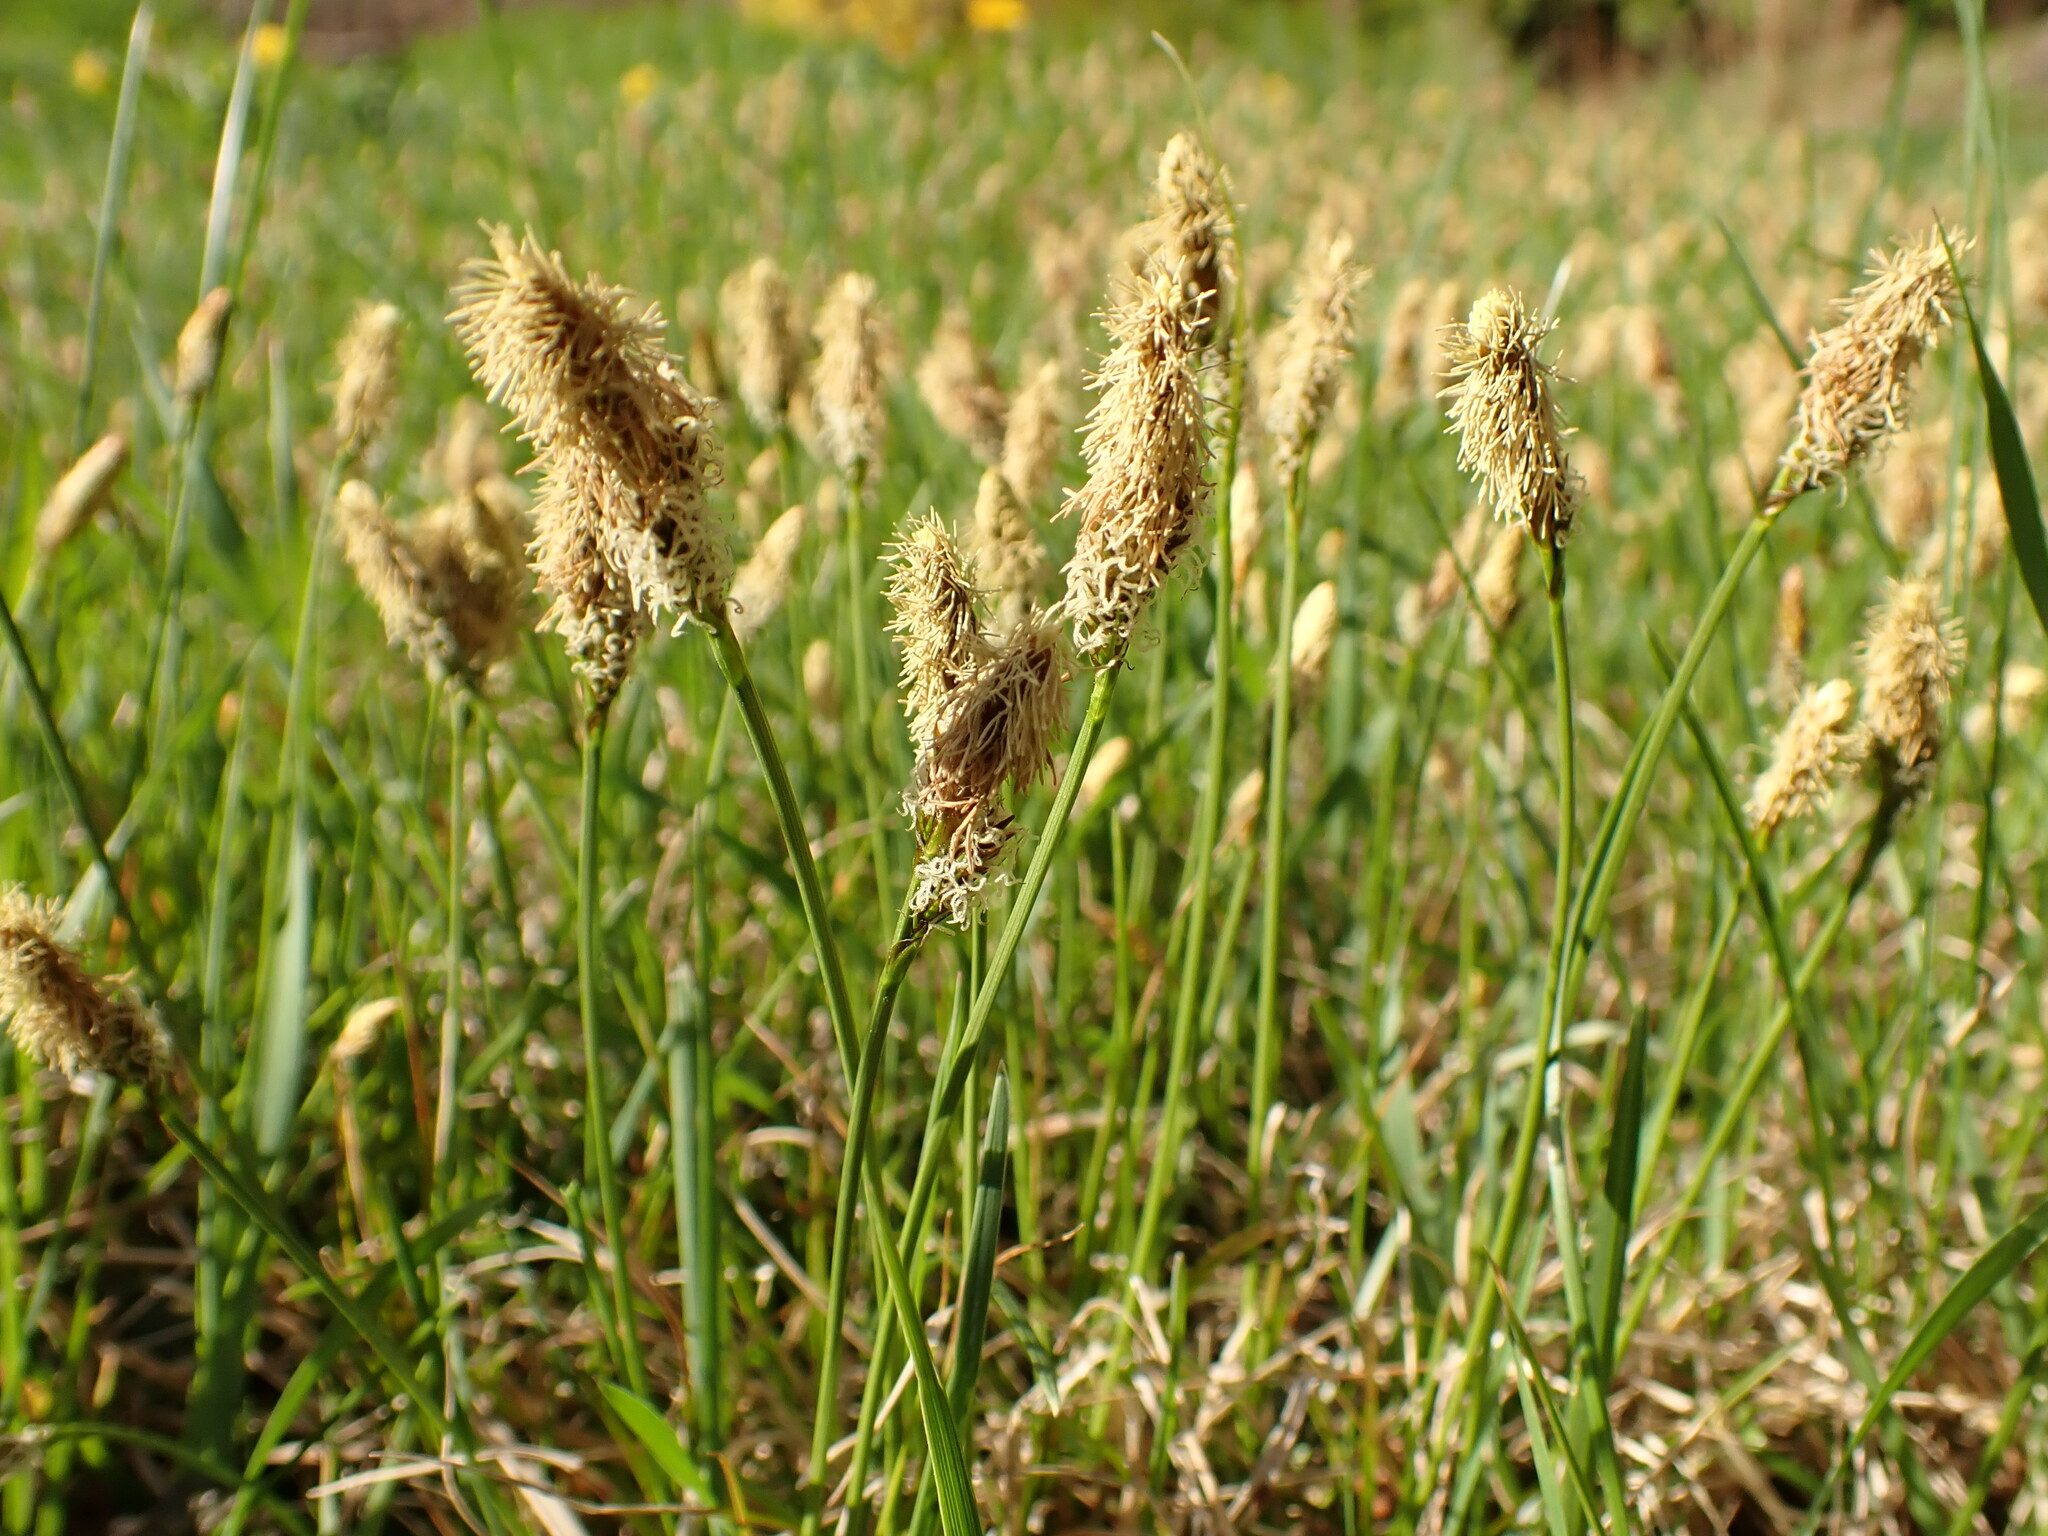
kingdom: Plantae
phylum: Tracheophyta
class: Liliopsida
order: Poales
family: Cyperaceae
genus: Carex
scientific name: Carex caryophyllea
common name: Spring sedge
